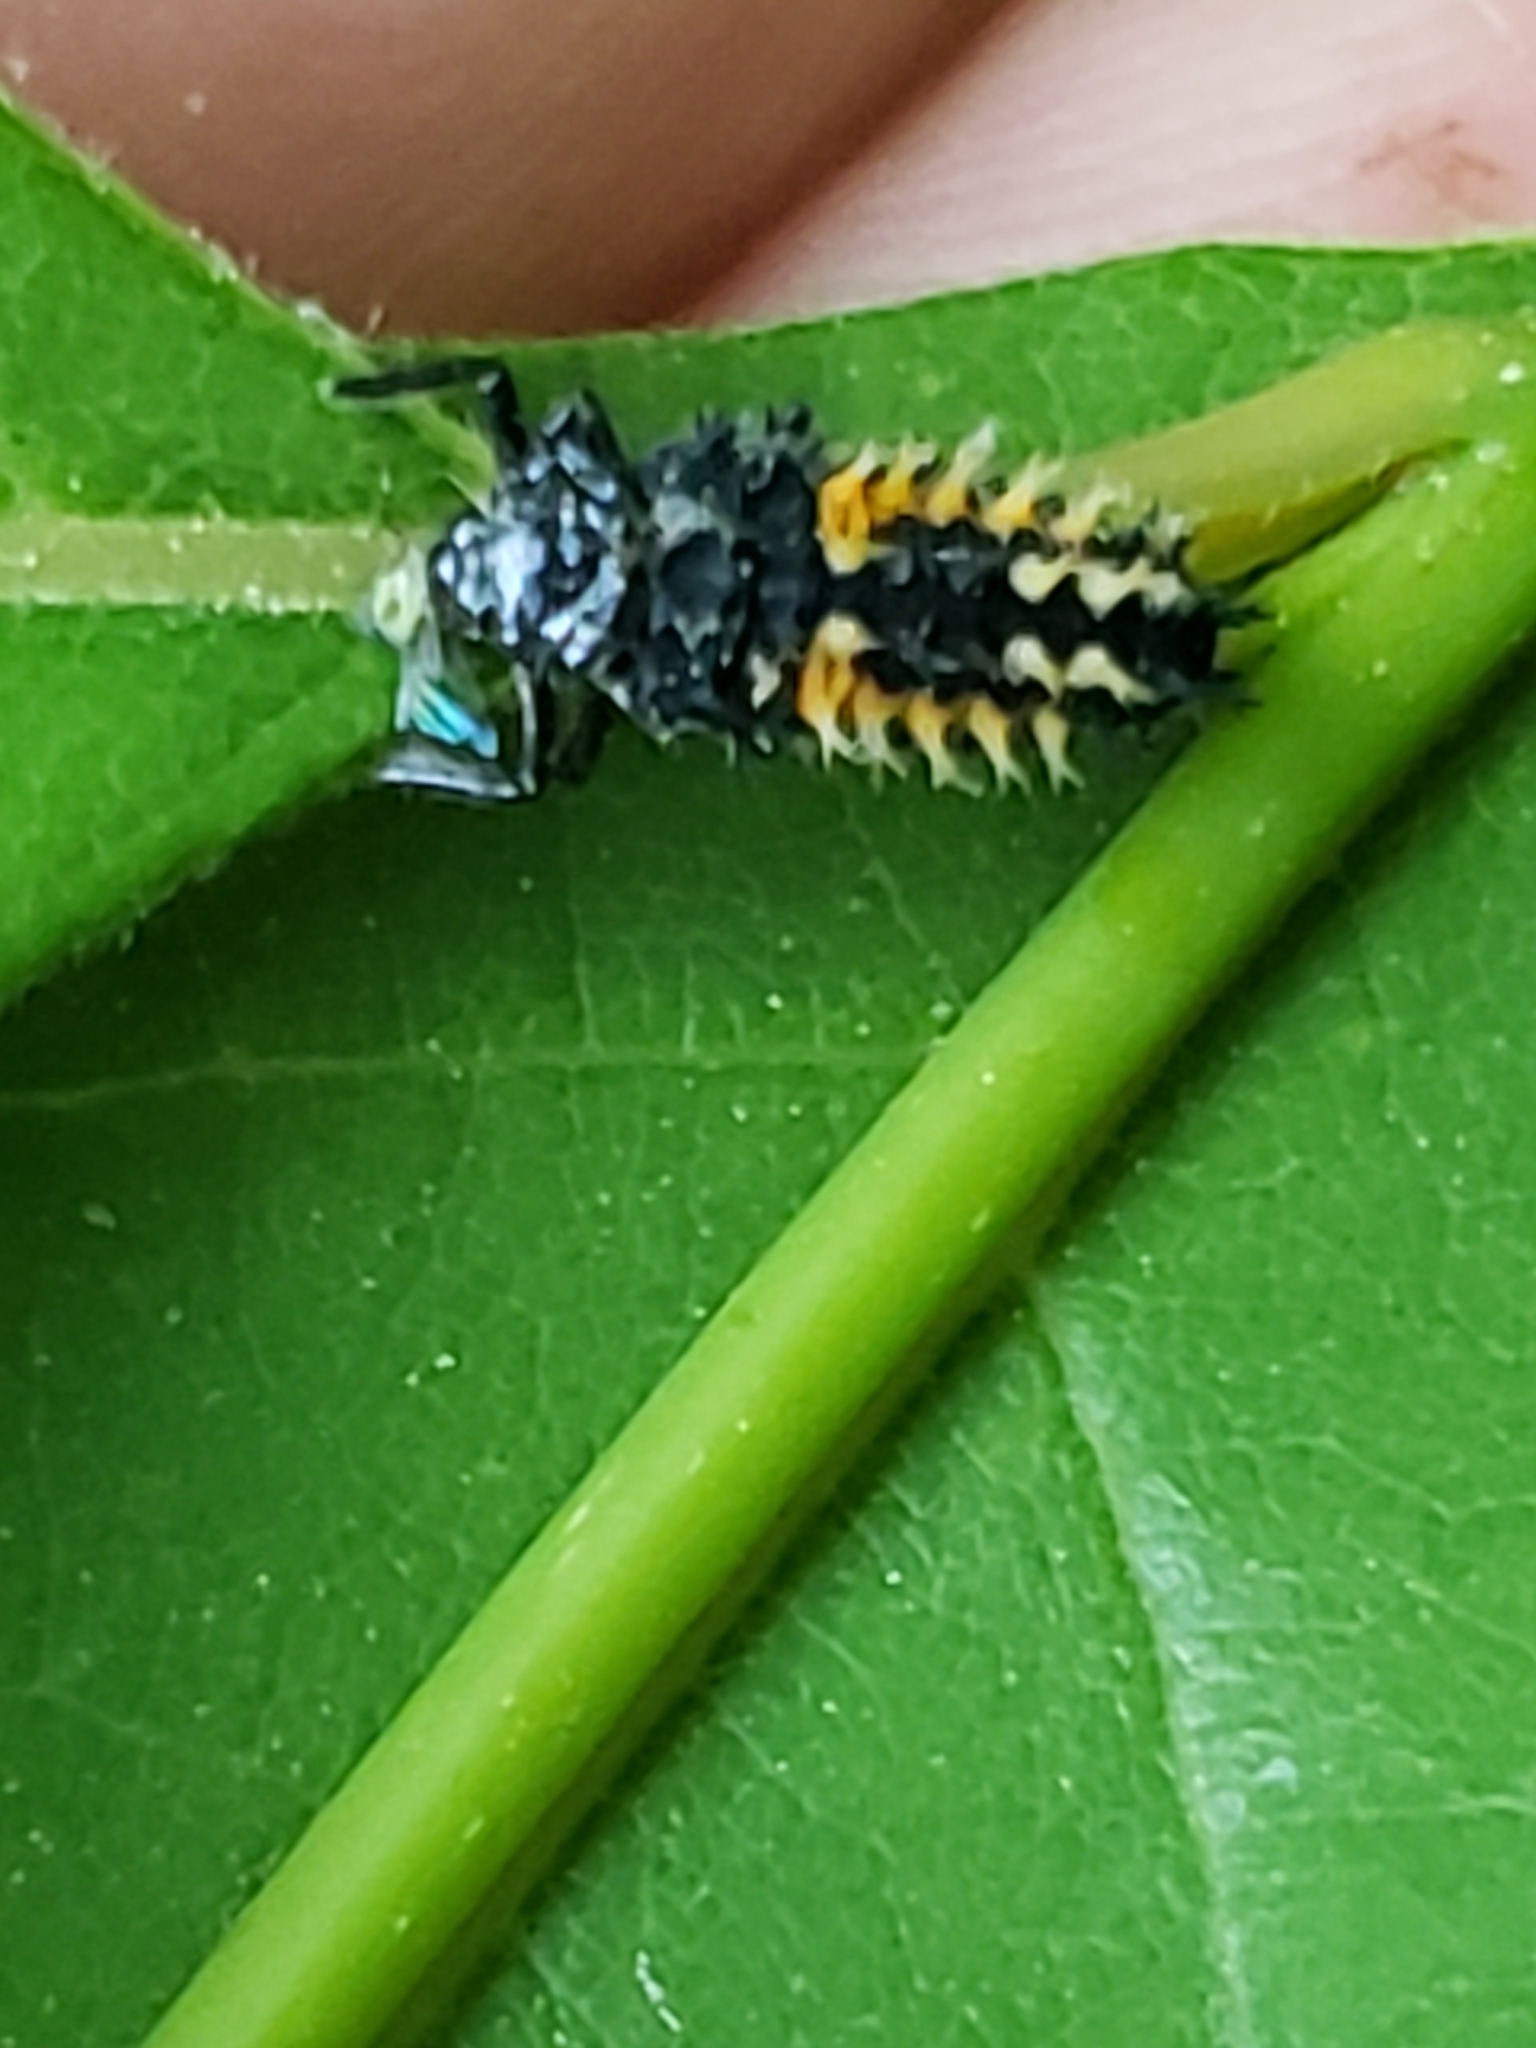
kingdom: Animalia
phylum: Arthropoda
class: Insecta
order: Coleoptera
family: Coccinellidae
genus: Harmonia
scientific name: Harmonia axyridis
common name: Harlequin ladybird
